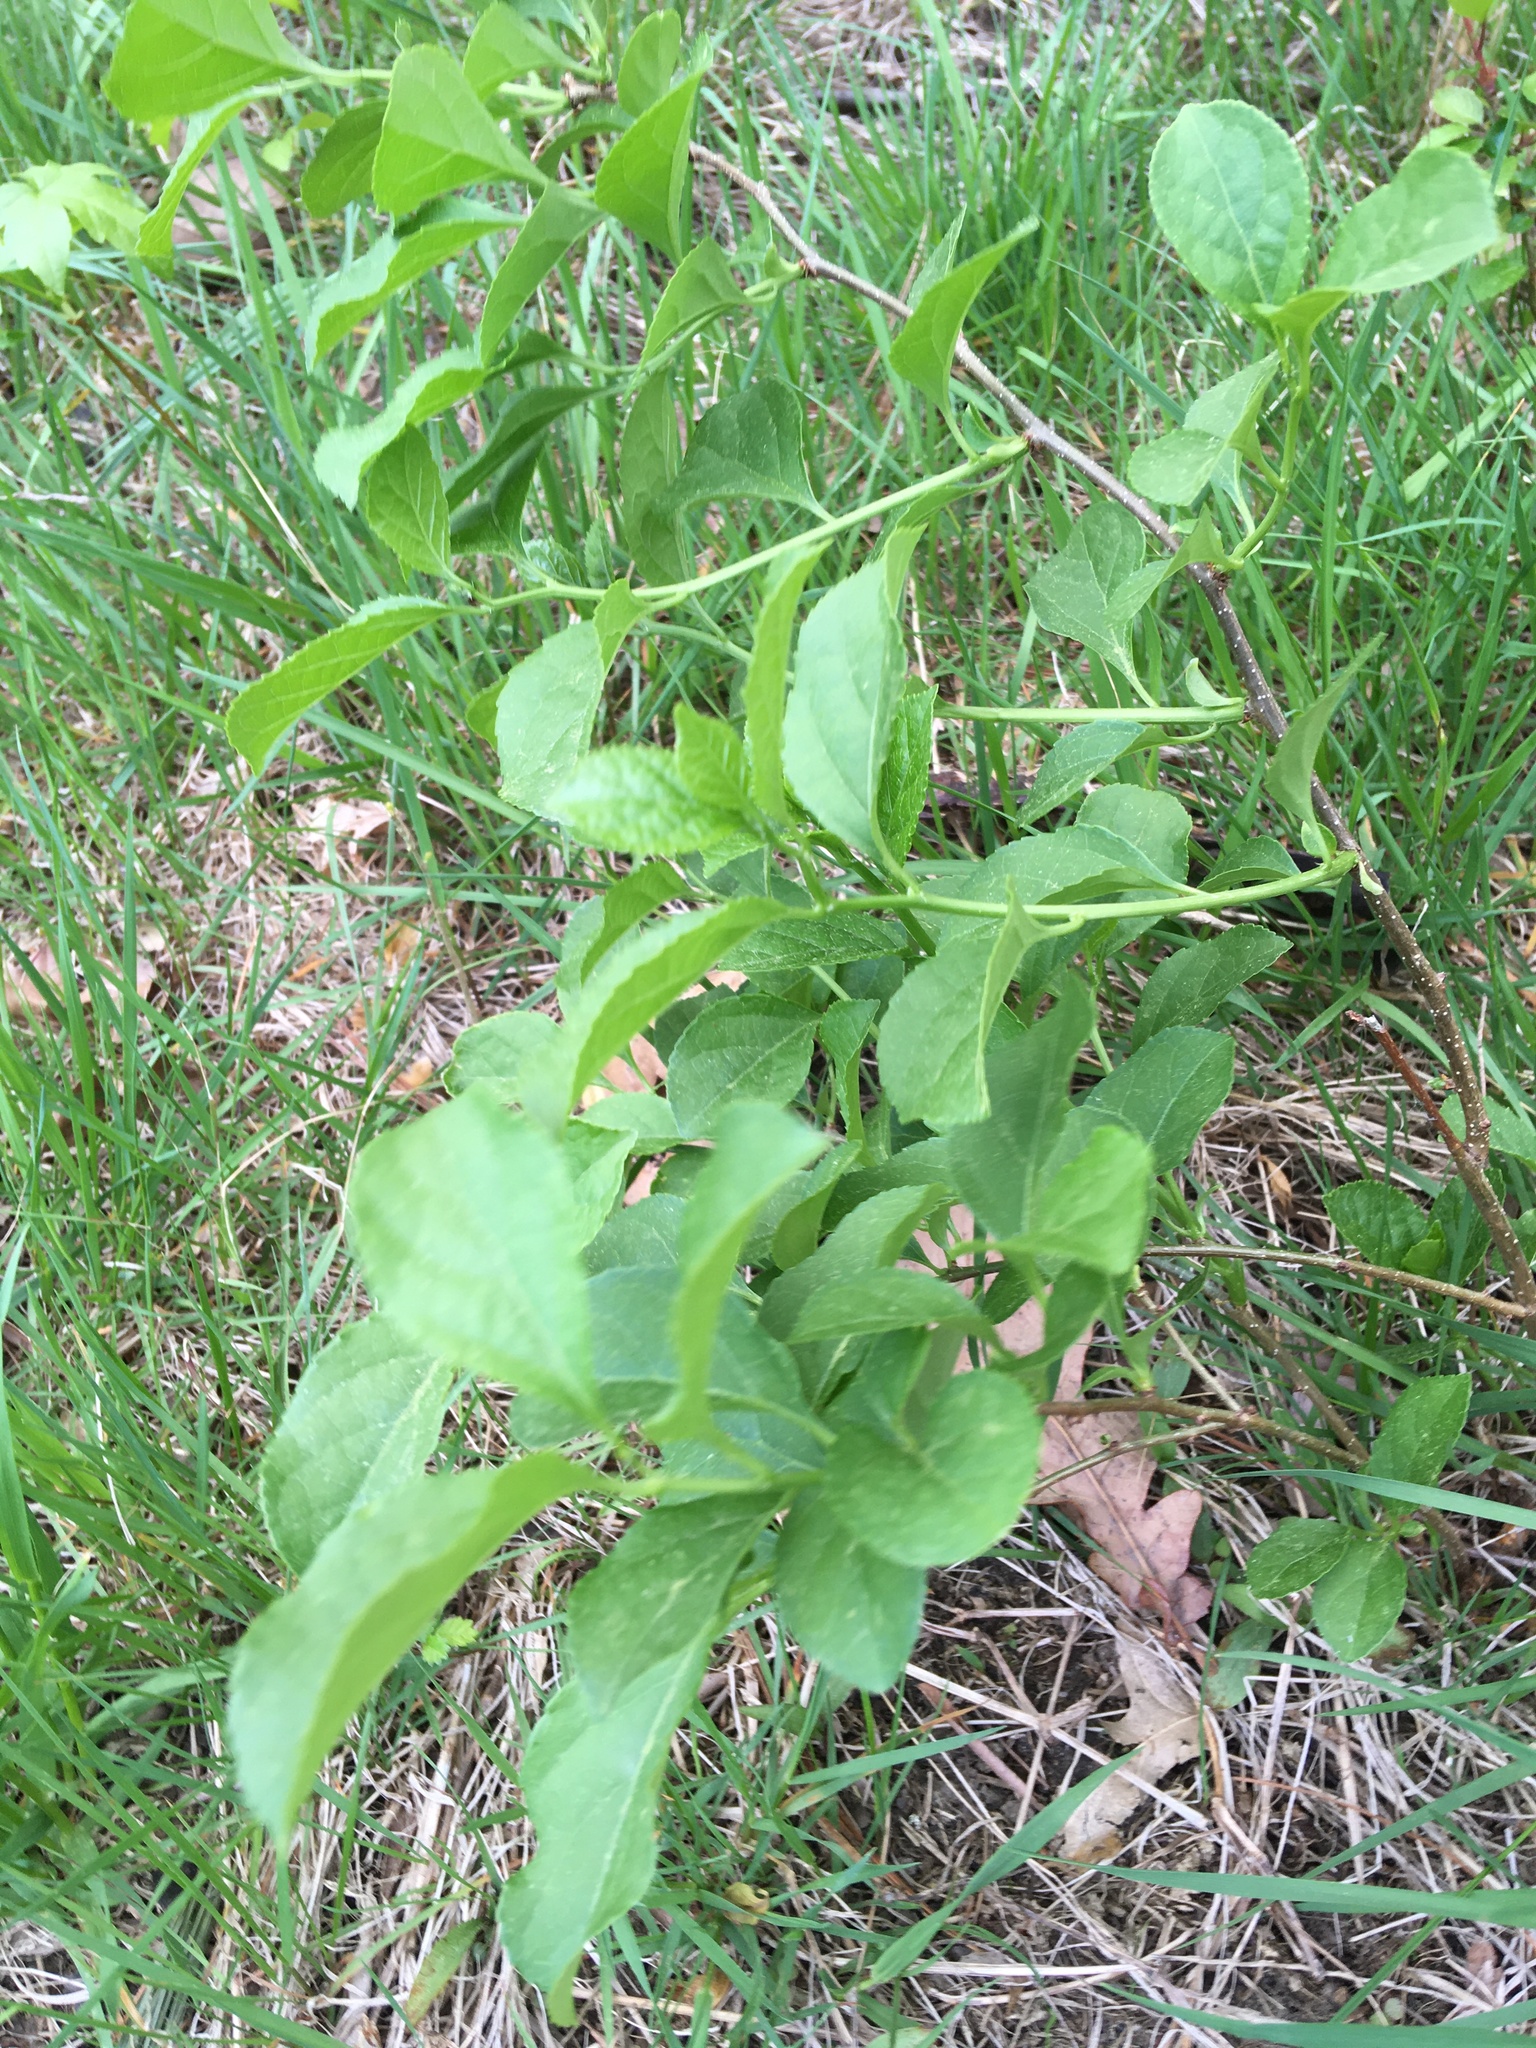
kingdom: Plantae
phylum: Tracheophyta
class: Magnoliopsida
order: Celastrales
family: Celastraceae
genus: Celastrus
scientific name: Celastrus orbiculatus
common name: Oriental bittersweet
